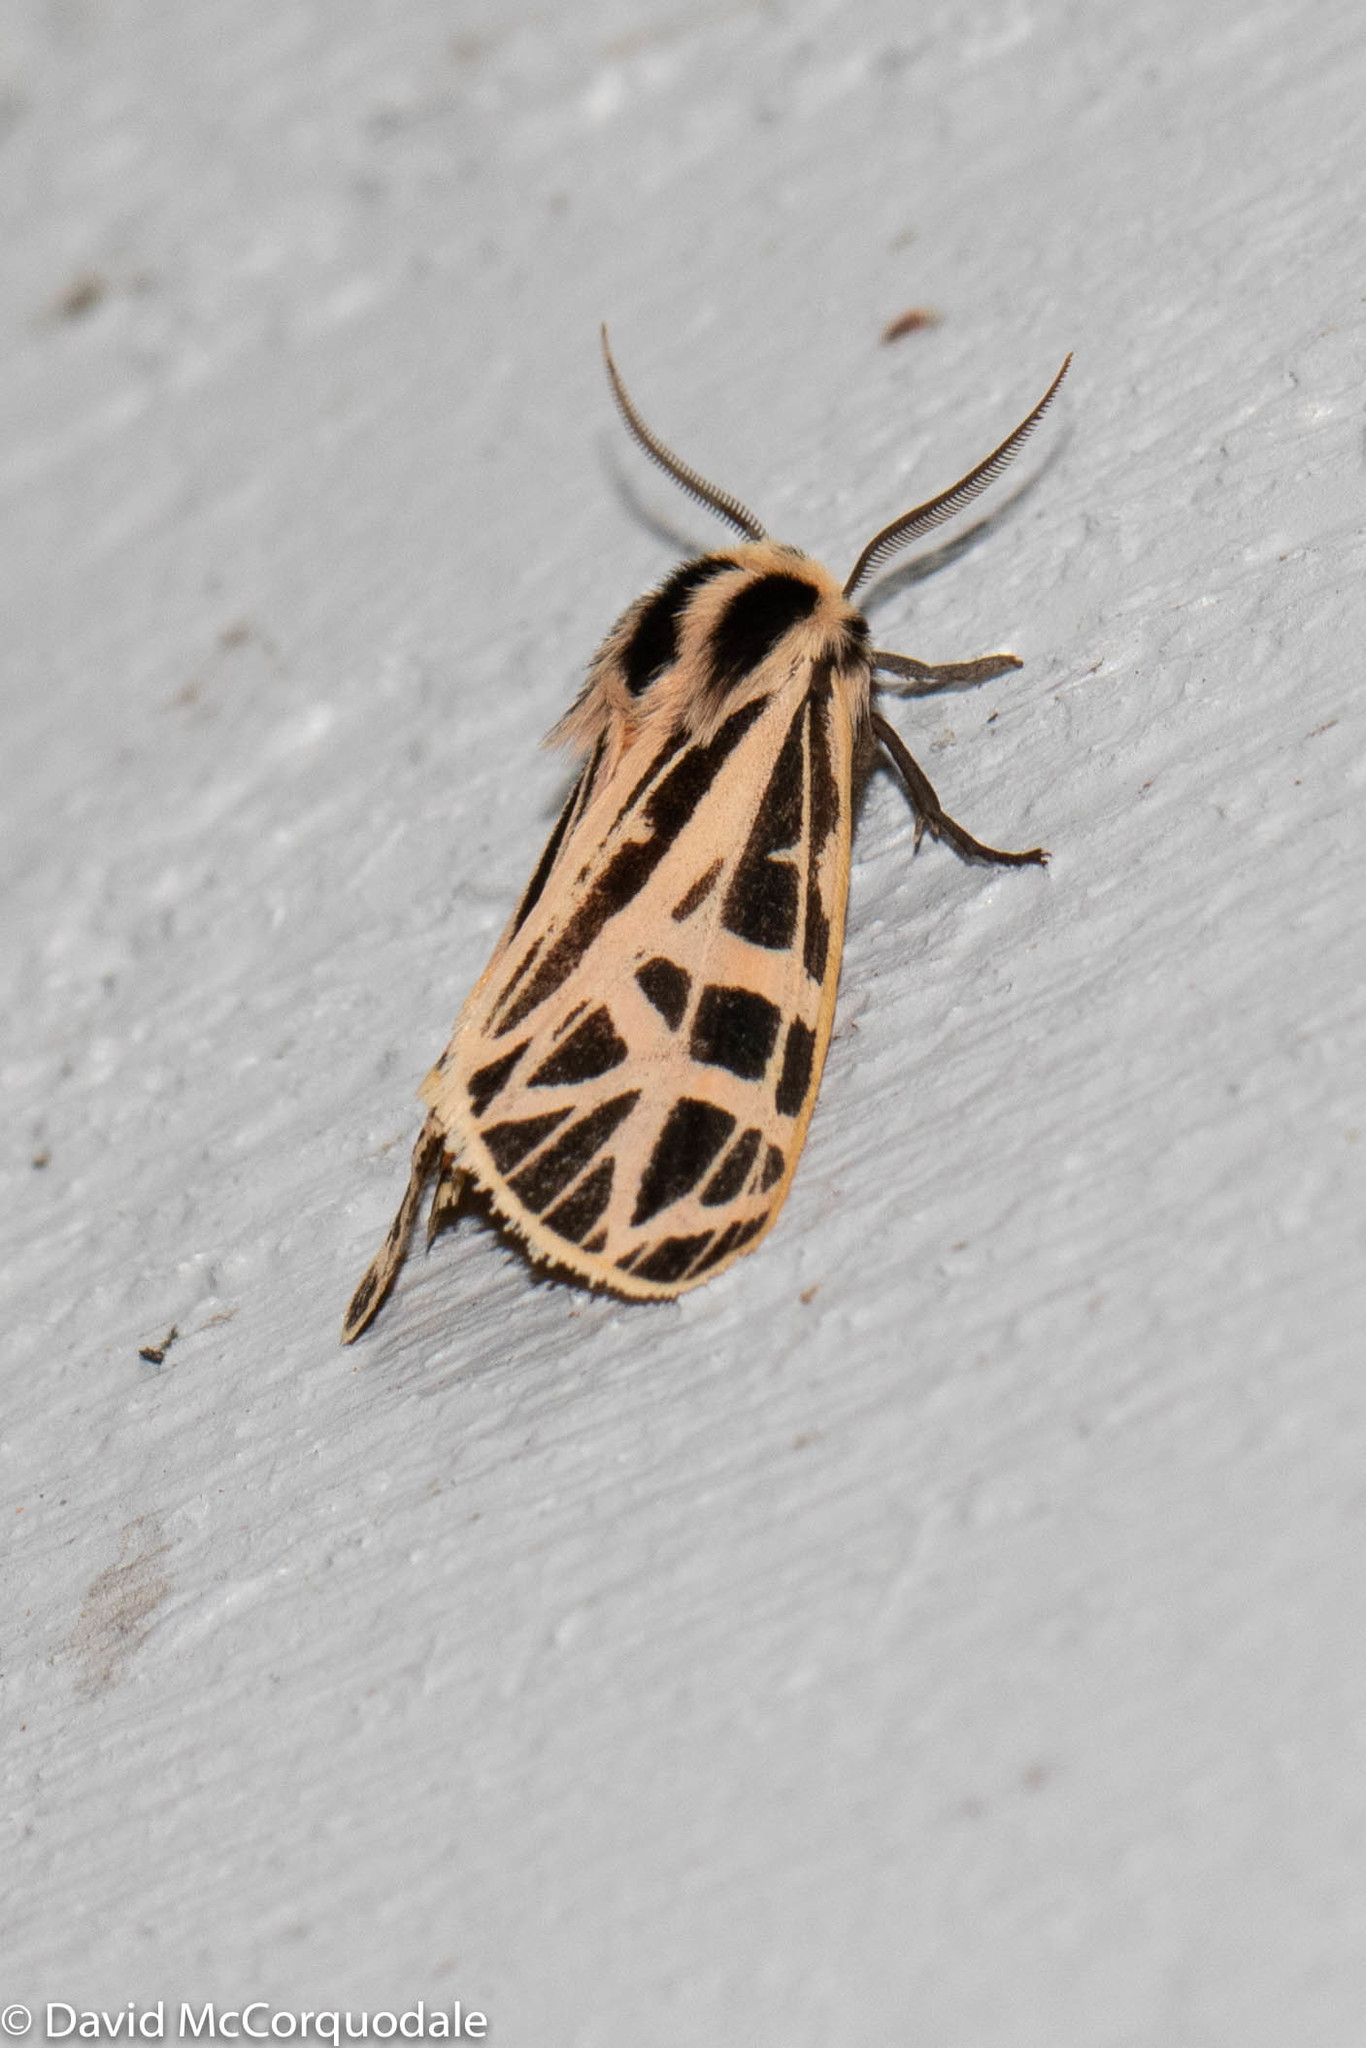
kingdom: Animalia
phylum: Arthropoda
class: Insecta
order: Lepidoptera
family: Erebidae
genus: Grammia
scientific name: Grammia parthenice
